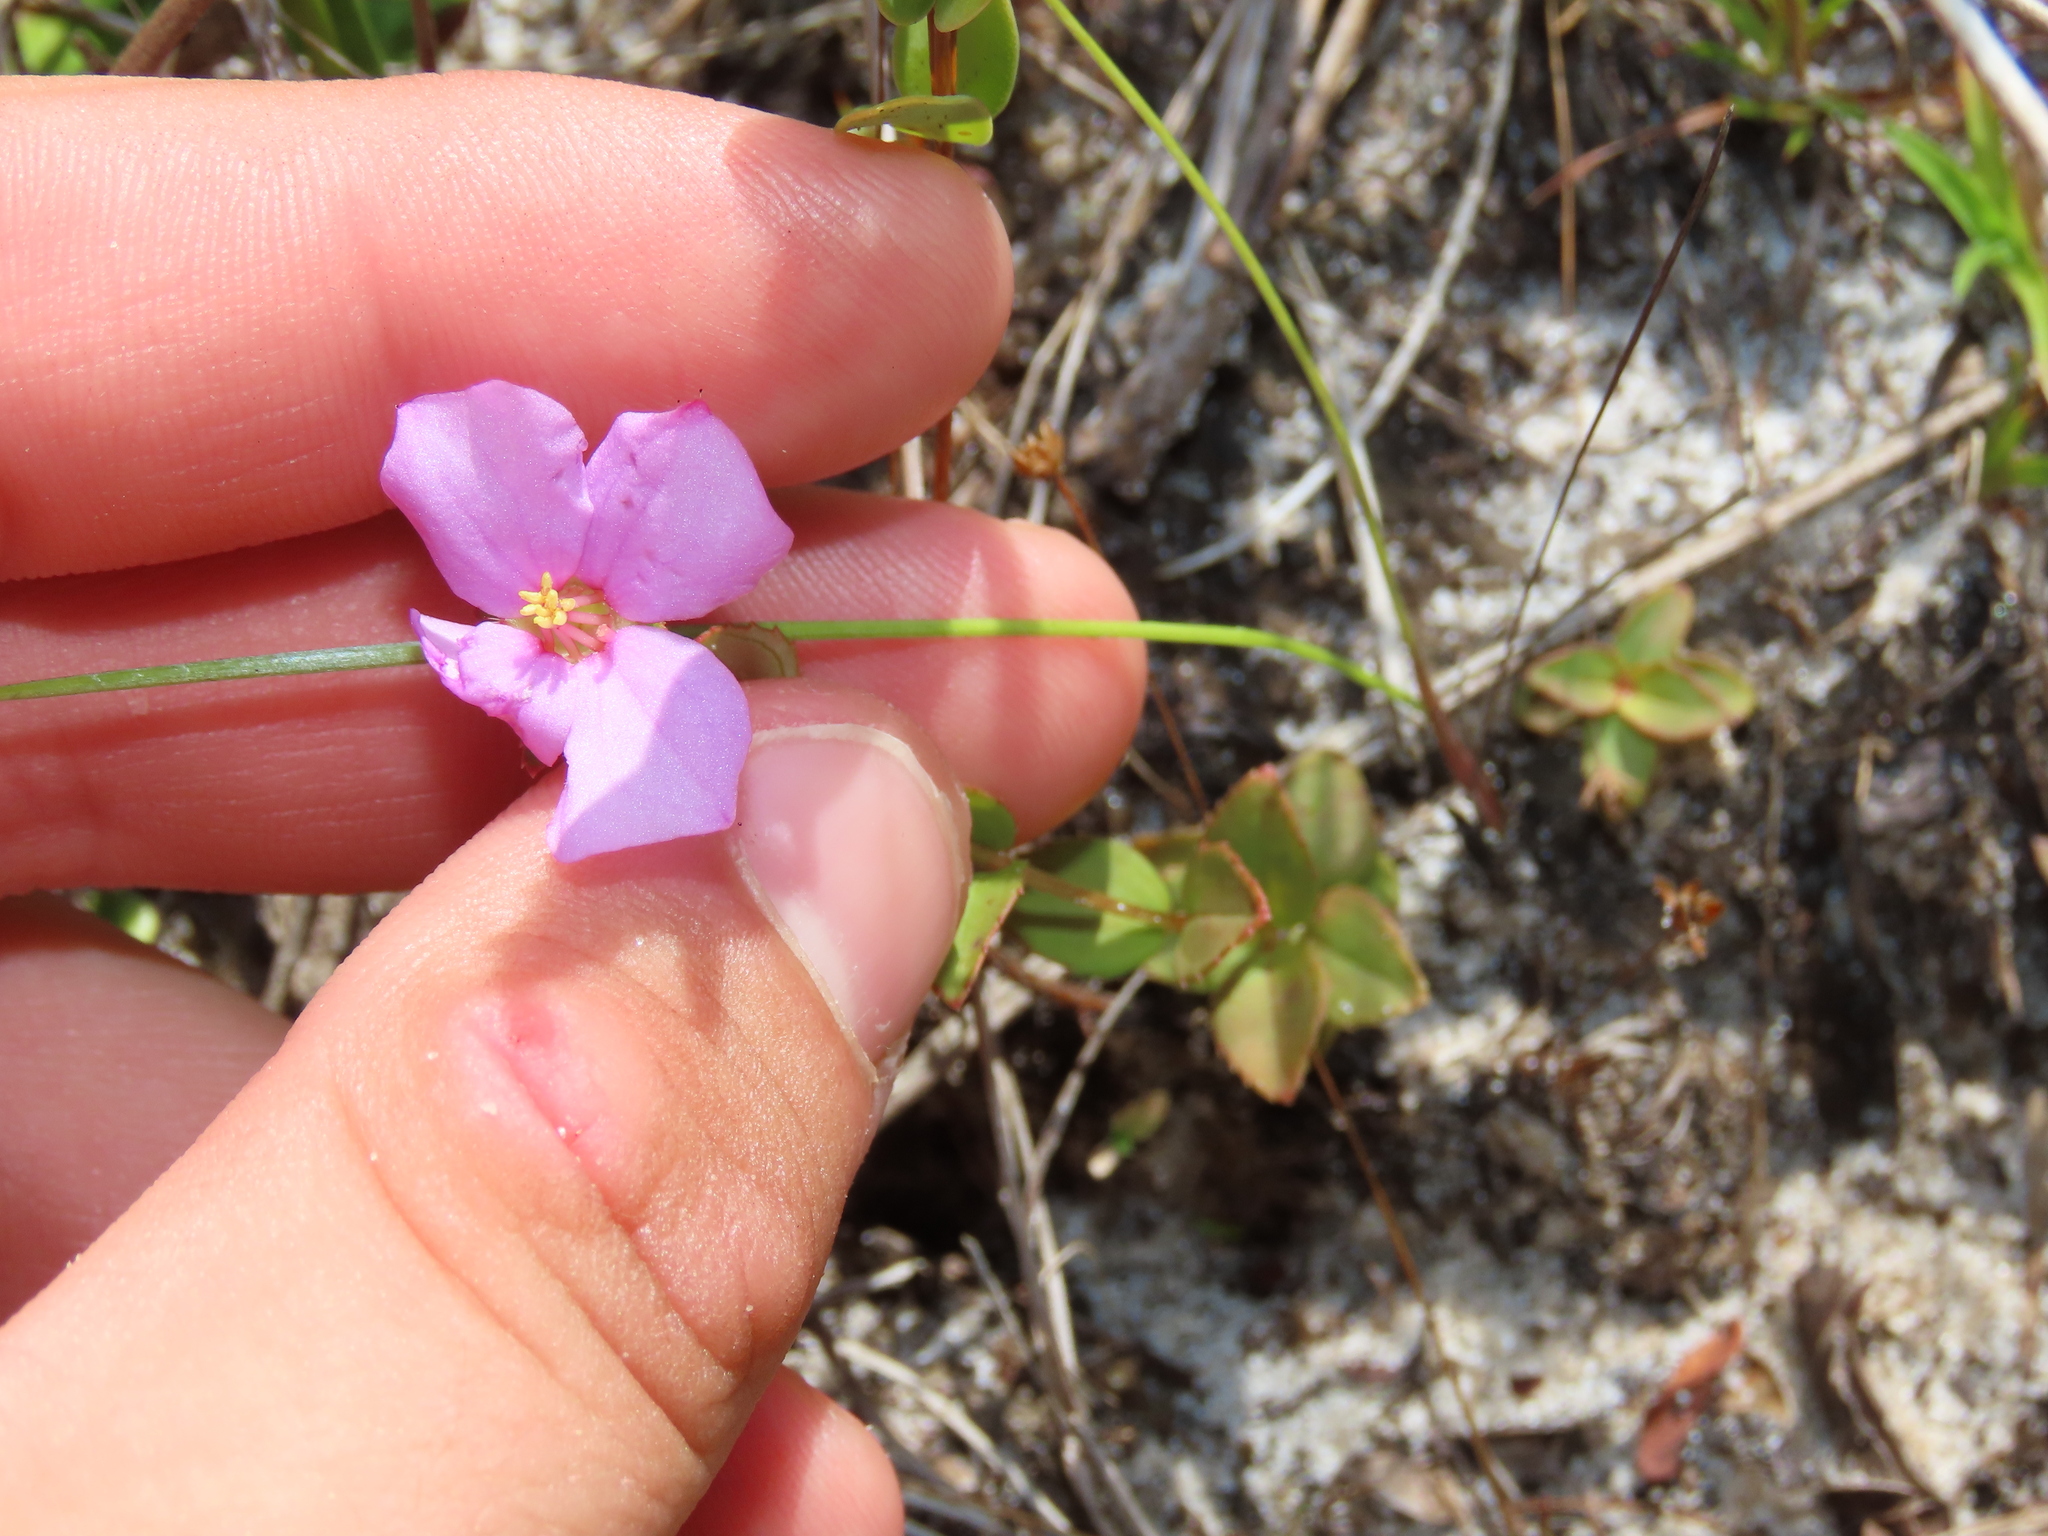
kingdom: Plantae
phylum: Tracheophyta
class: Magnoliopsida
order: Myrtales
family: Melastomataceae
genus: Rhexia
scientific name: Rhexia nuttallii
